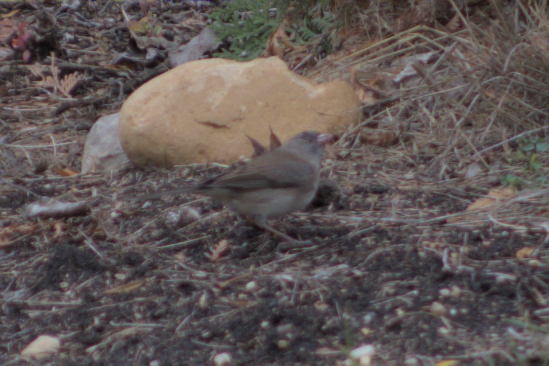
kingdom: Animalia
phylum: Chordata
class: Aves
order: Passeriformes
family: Passerellidae
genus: Junco
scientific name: Junco hyemalis
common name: Dark-eyed junco
